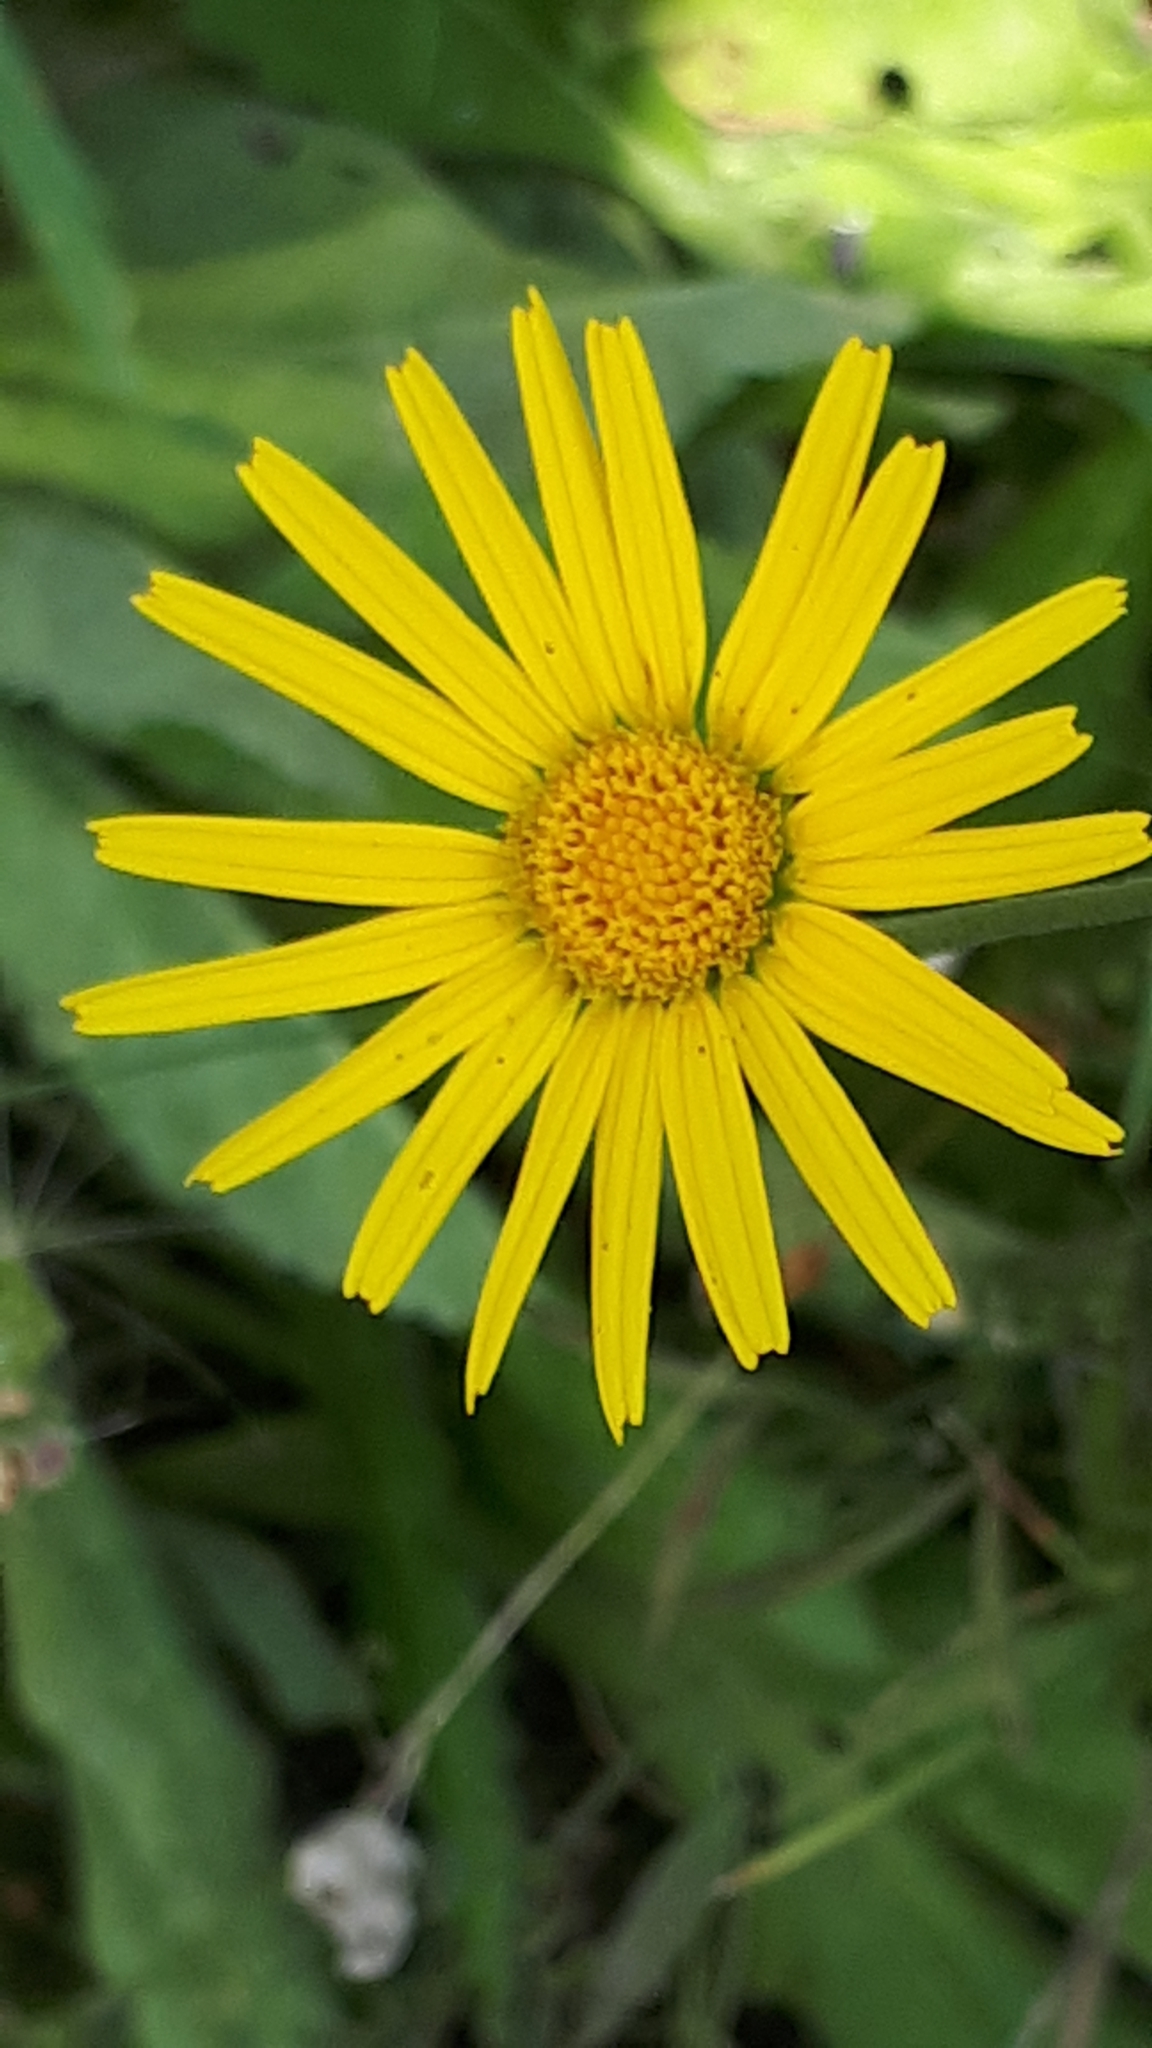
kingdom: Plantae
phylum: Tracheophyta
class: Magnoliopsida
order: Asterales
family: Asteraceae
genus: Buphthalmum
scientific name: Buphthalmum salicifolium
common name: Willow-leaved yellow-oxeye
